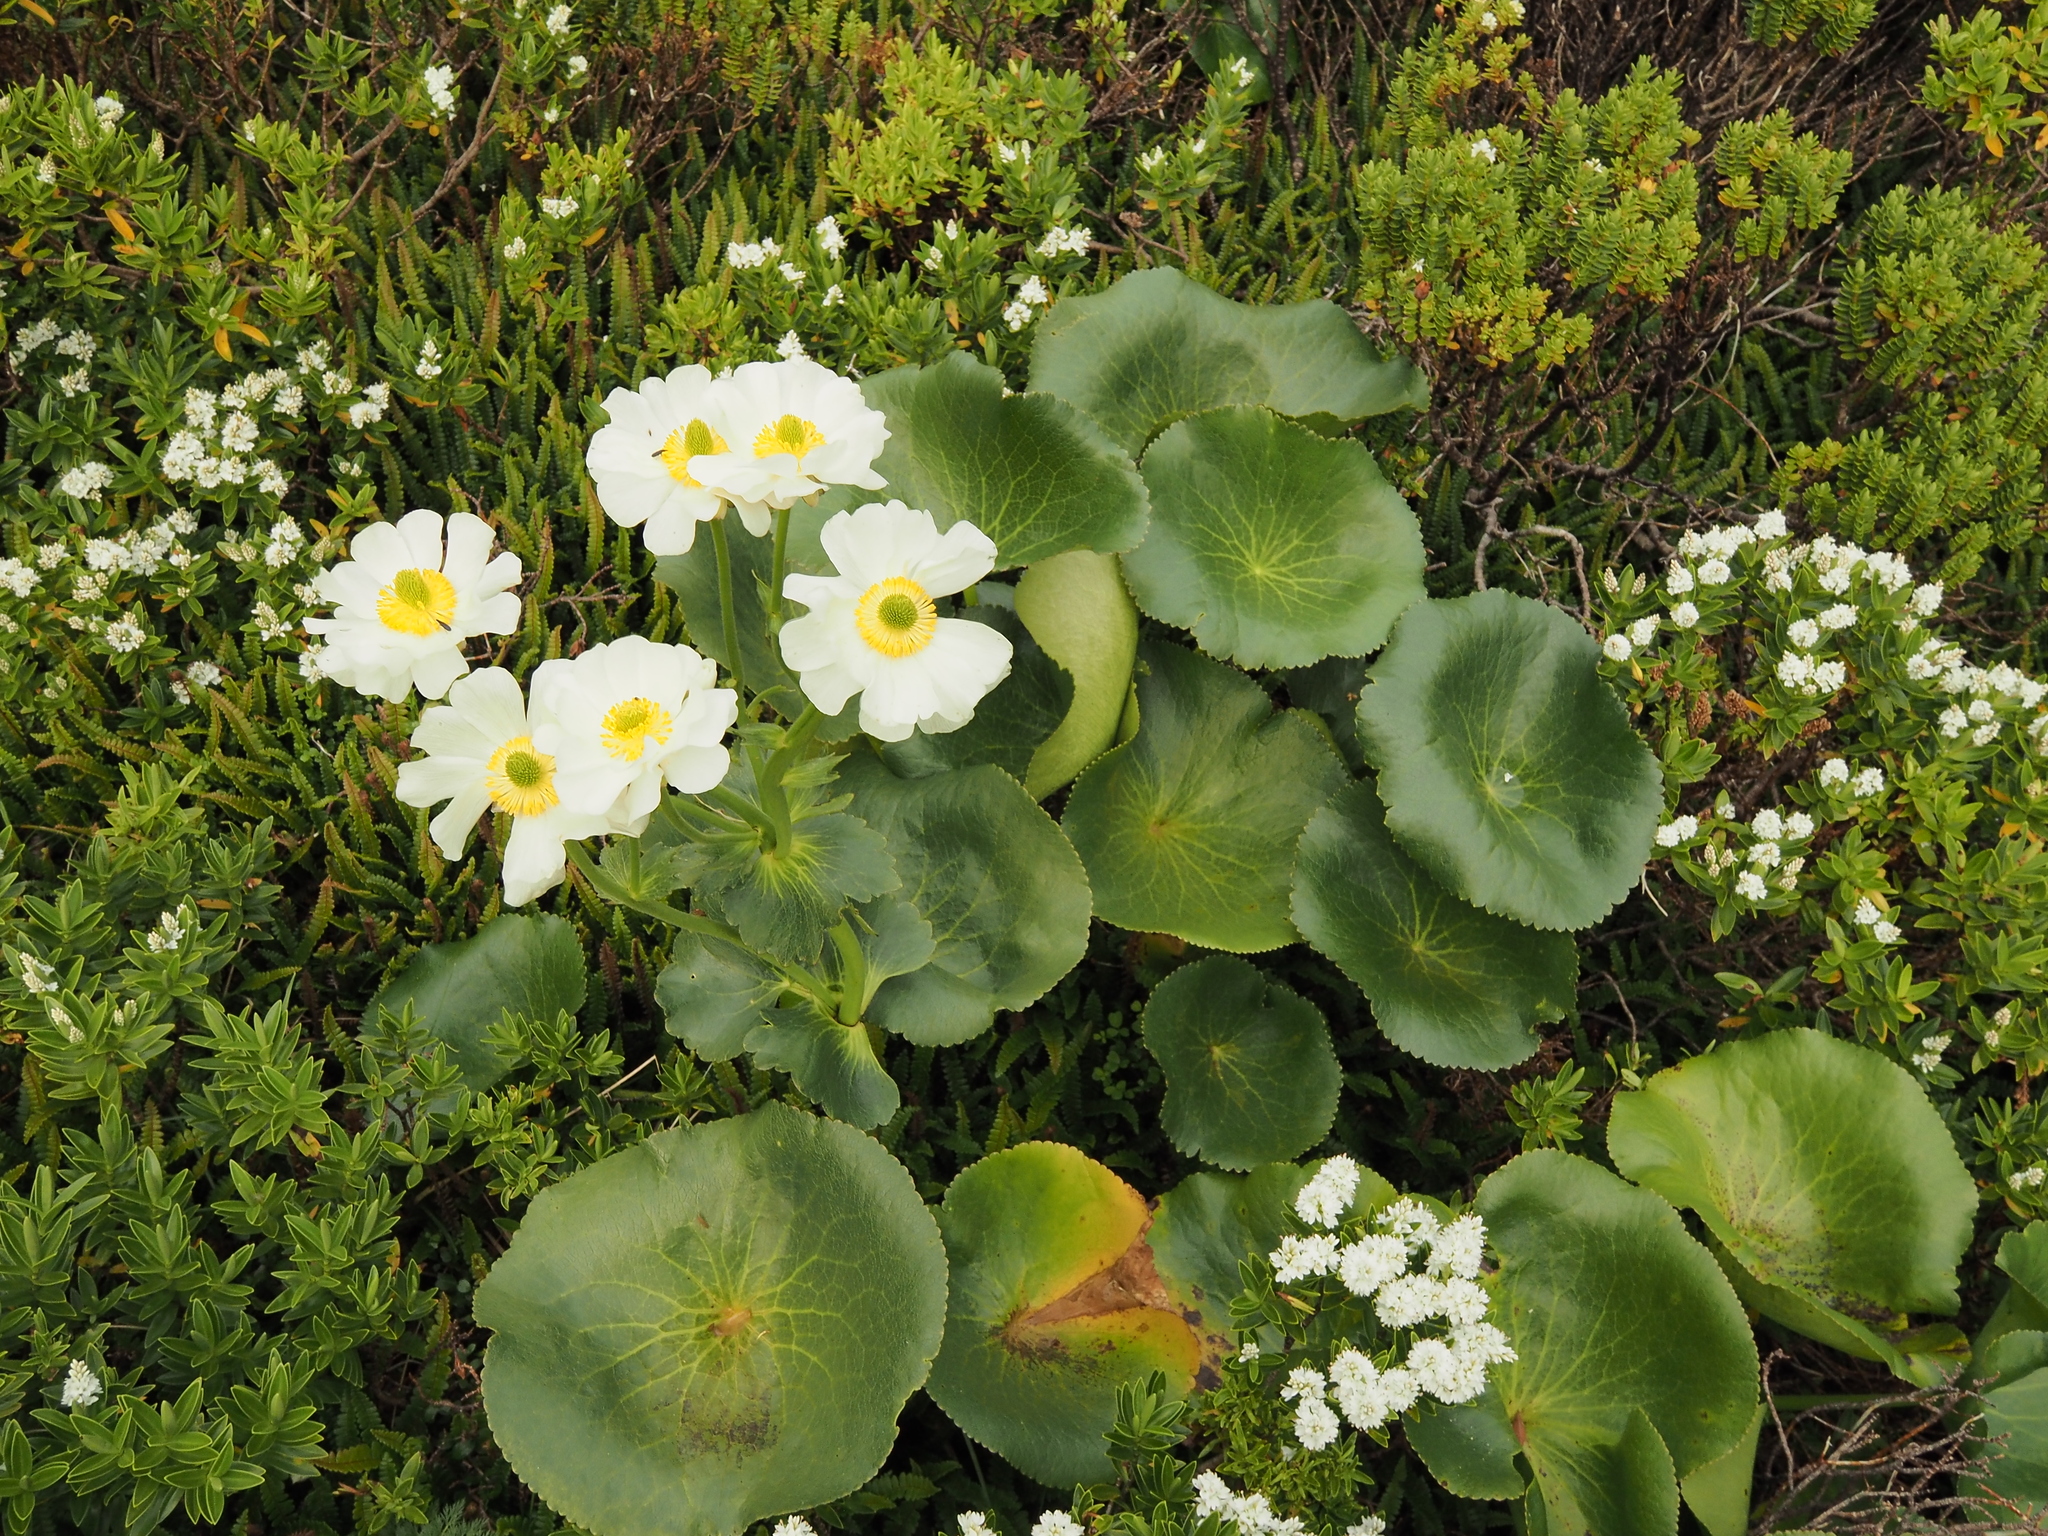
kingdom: Plantae
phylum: Tracheophyta
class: Magnoliopsida
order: Ranunculales
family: Ranunculaceae
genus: Ranunculus
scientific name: Ranunculus lyallii
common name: Mountain-lily
